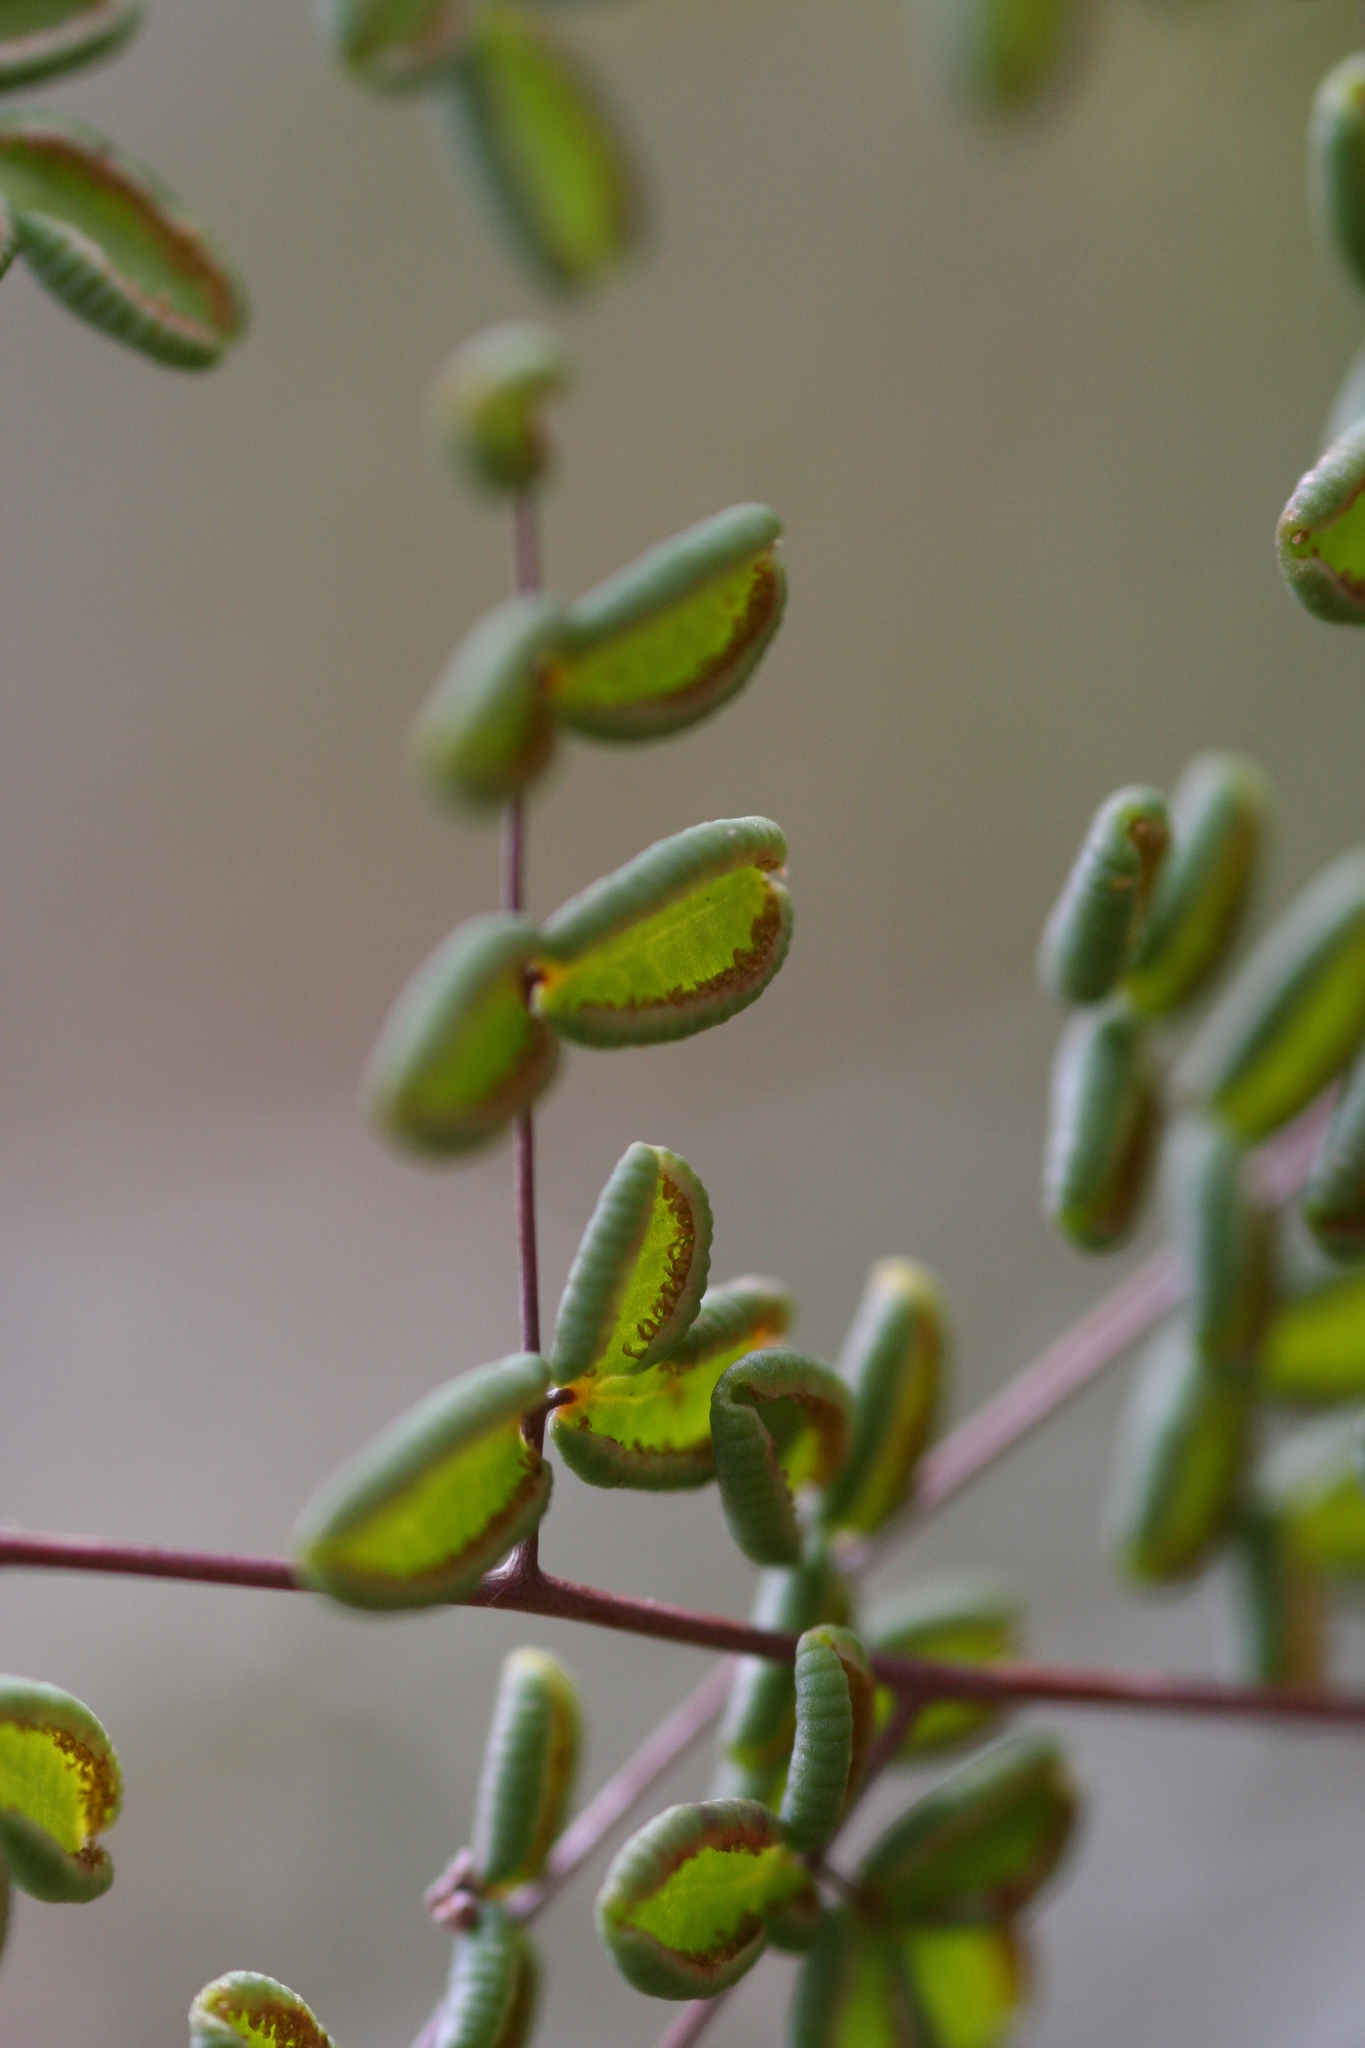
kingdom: Plantae
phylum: Tracheophyta
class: Polypodiopsida
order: Polypodiales
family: Pteridaceae
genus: Pellaea
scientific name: Pellaea andromedifolia
